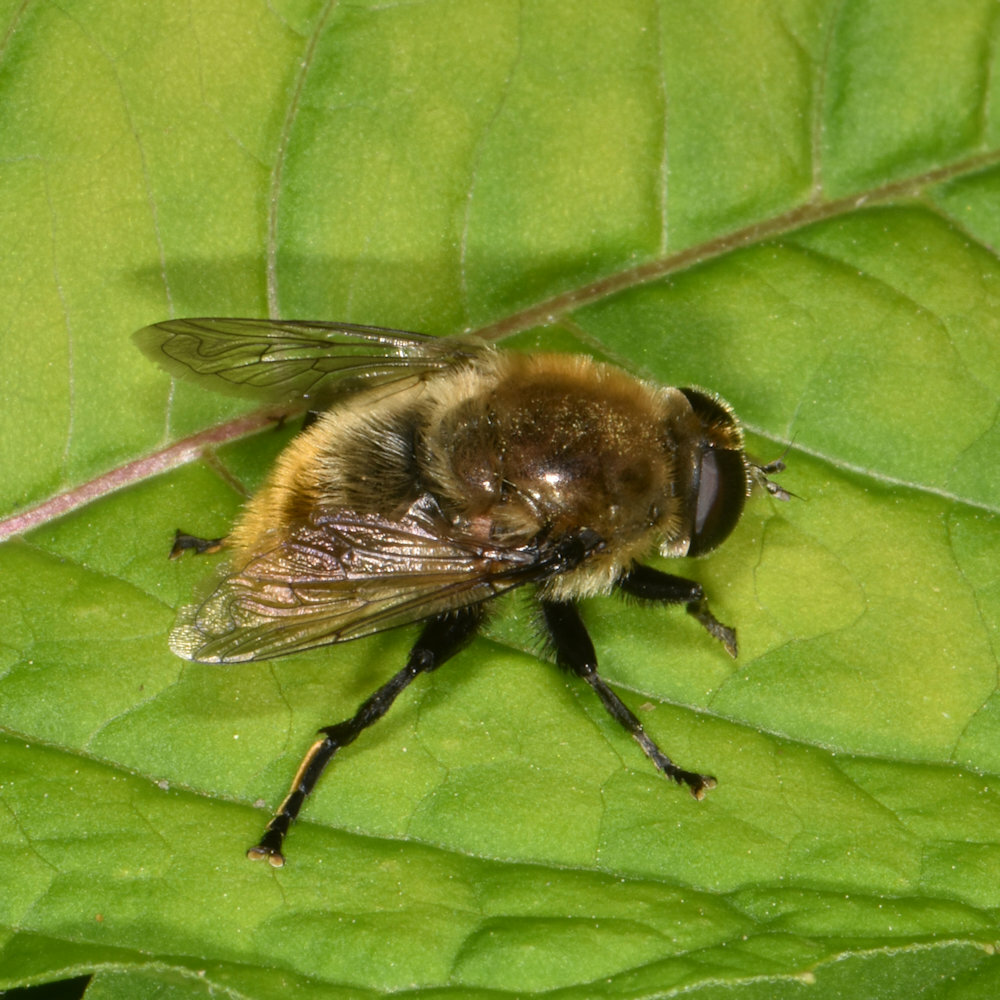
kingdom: Animalia
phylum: Arthropoda
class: Insecta
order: Diptera
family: Syrphidae
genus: Merodon
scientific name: Merodon equestris
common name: Greater bulb-fly
